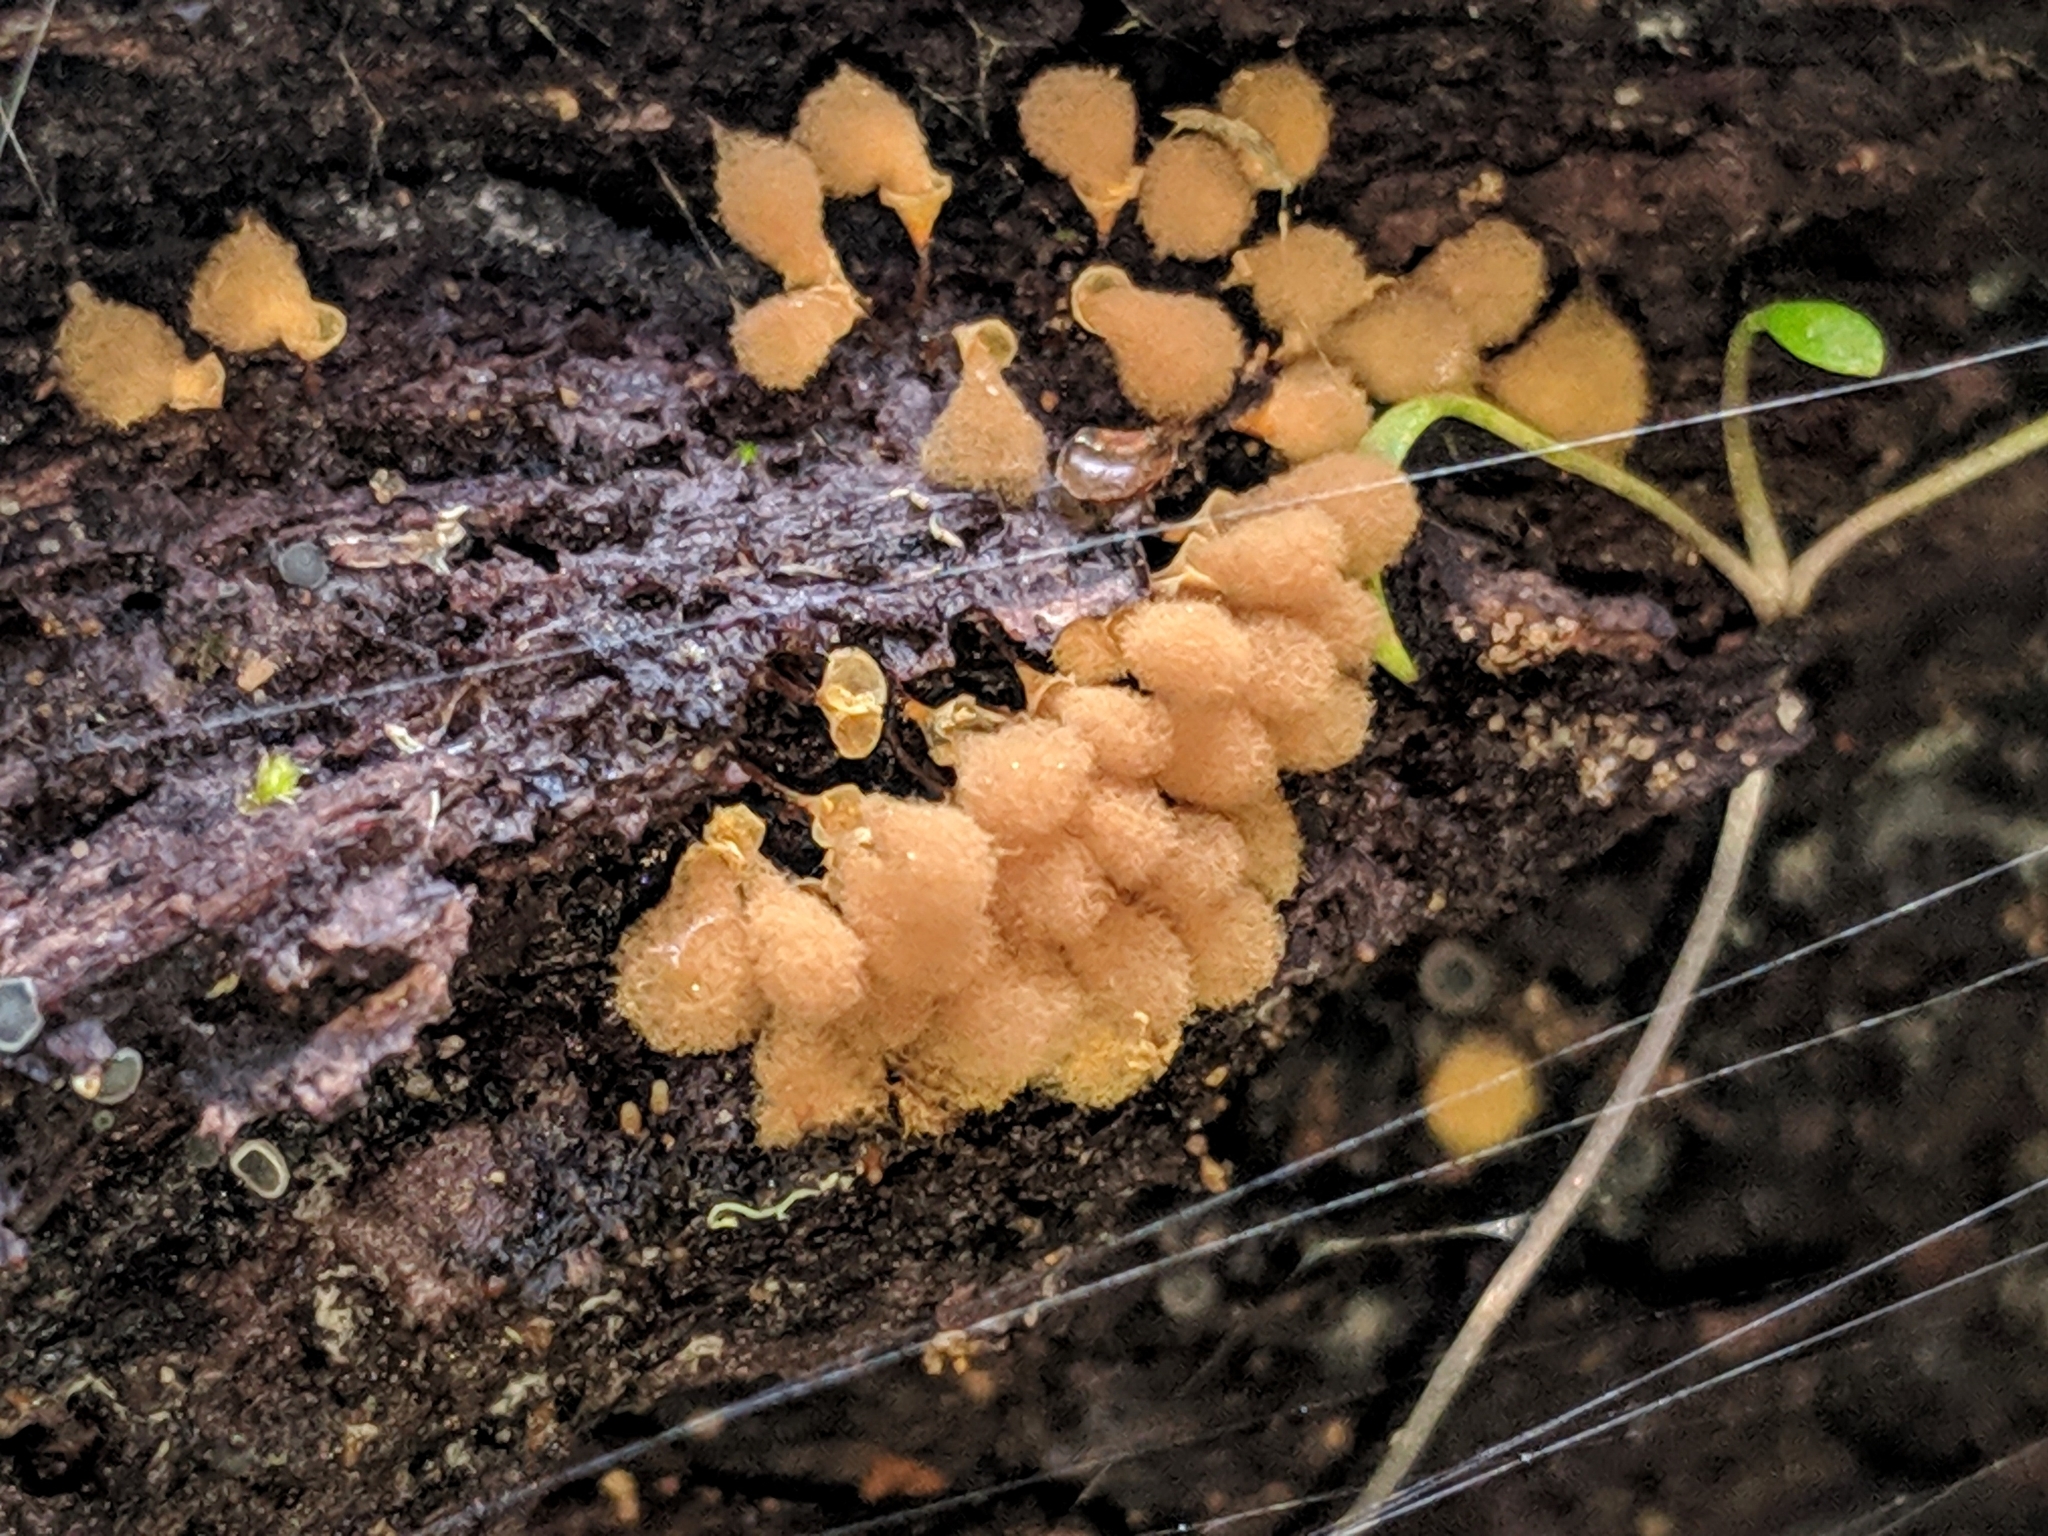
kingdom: Protozoa
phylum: Mycetozoa
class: Myxomycetes
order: Trichiales
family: Arcyriaceae
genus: Hemitrichia
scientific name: Hemitrichia calyculata
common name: Push pin slime mold
